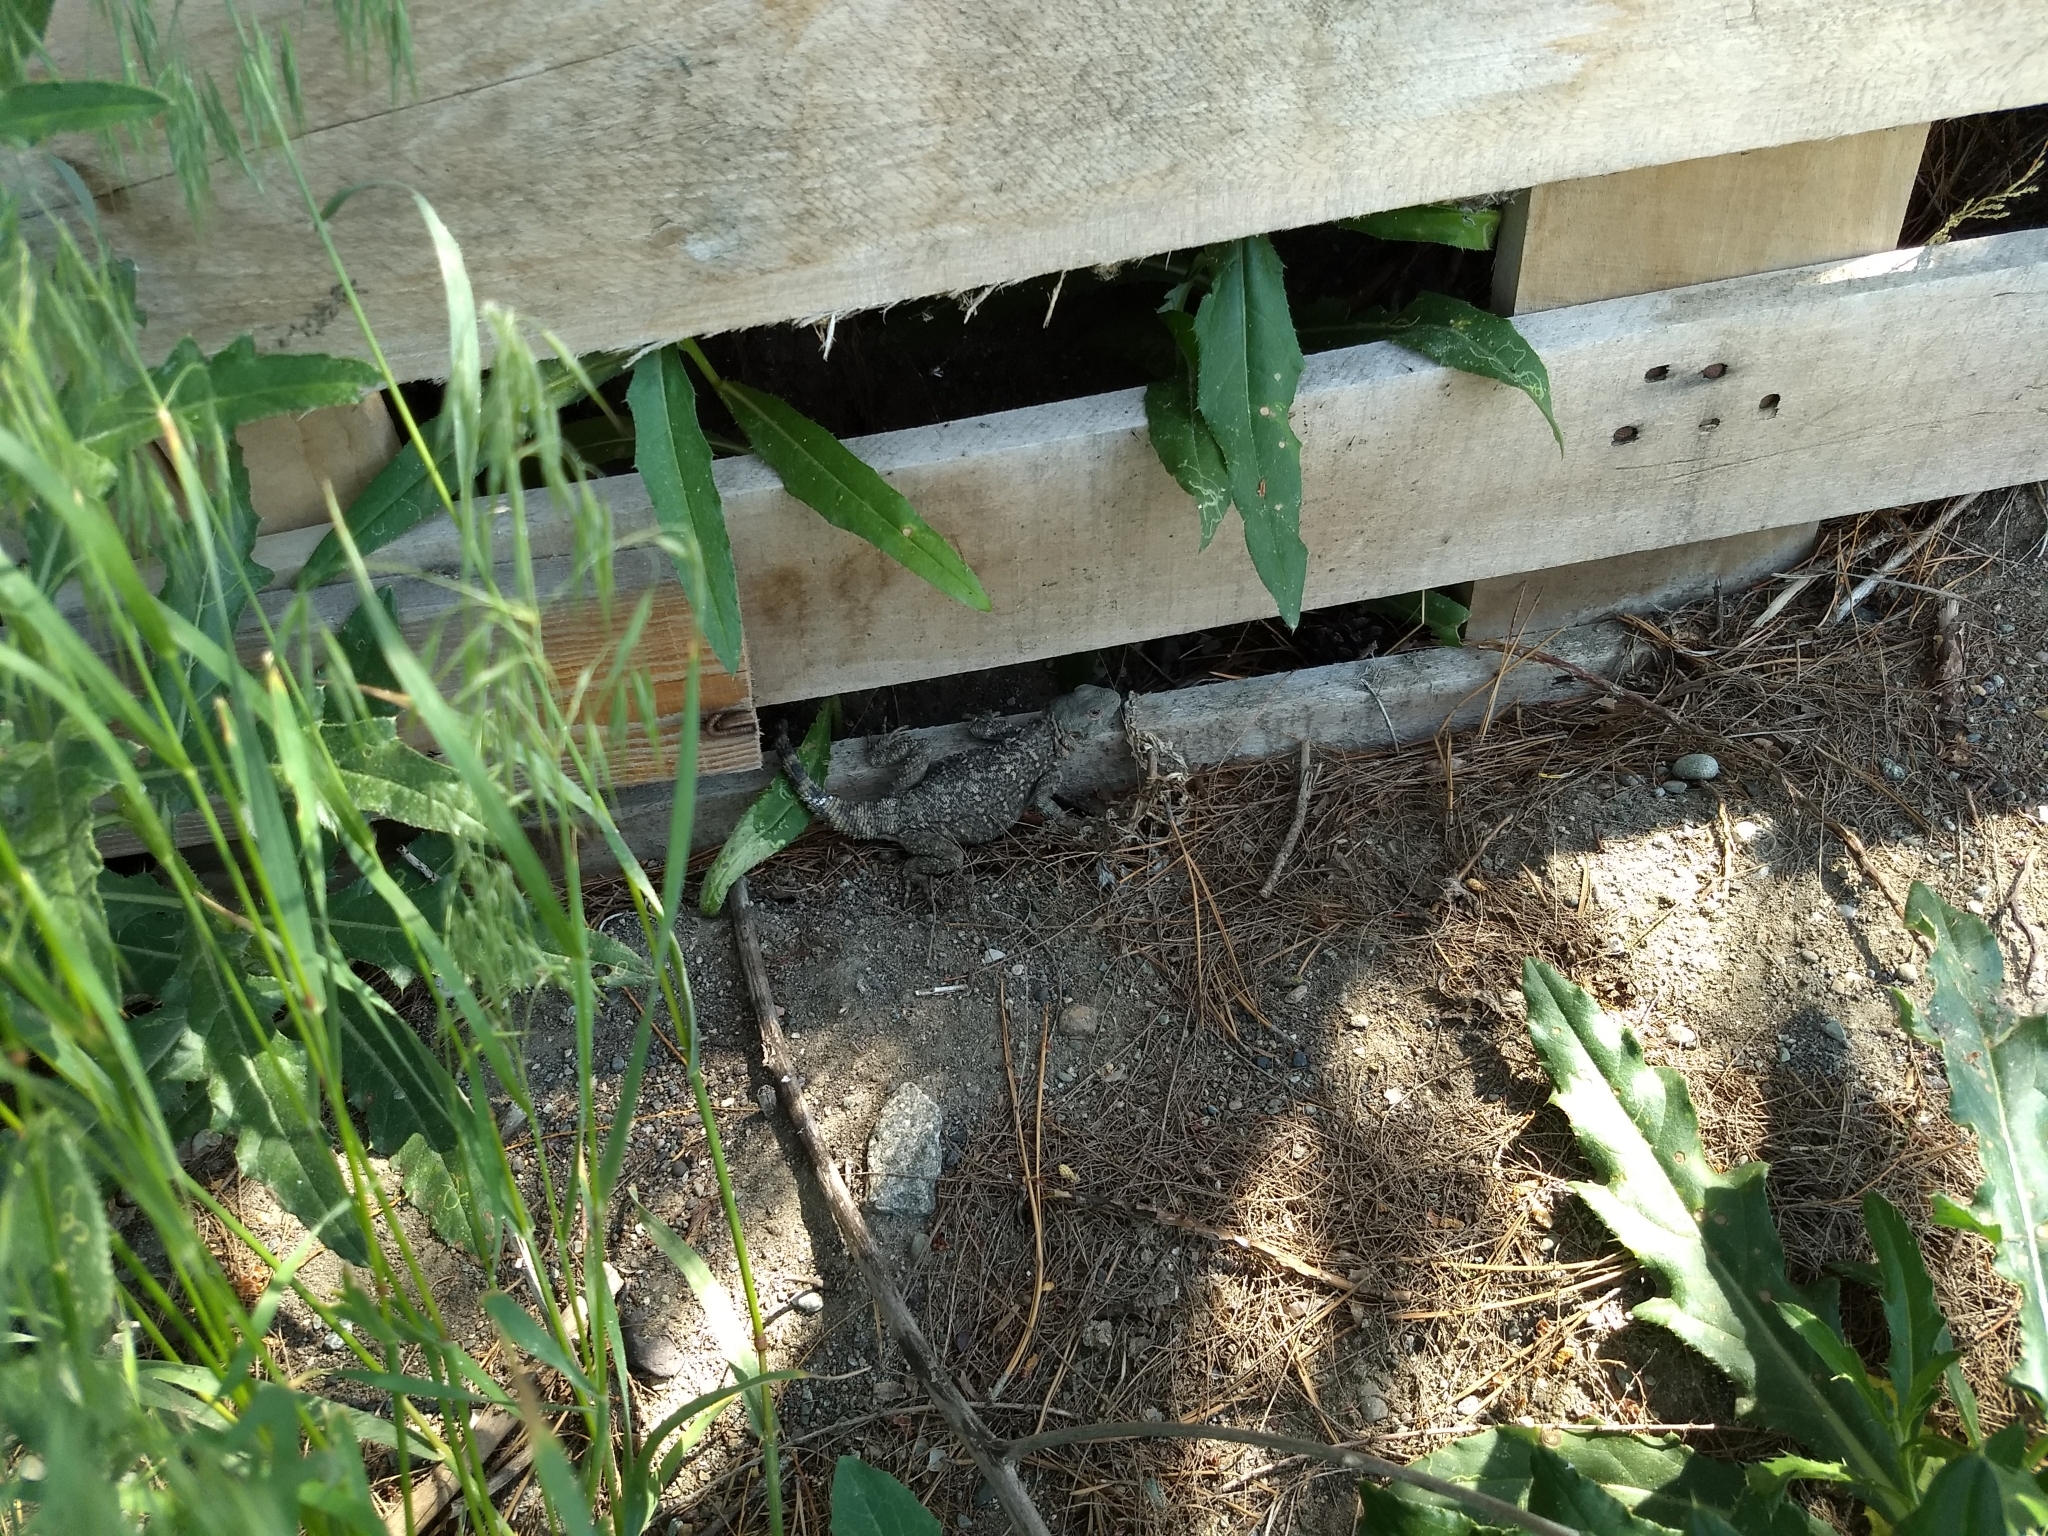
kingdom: Animalia
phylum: Chordata
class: Squamata
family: Agamidae
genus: Paralaudakia
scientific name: Paralaudakia caucasia
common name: Caucasian agama
